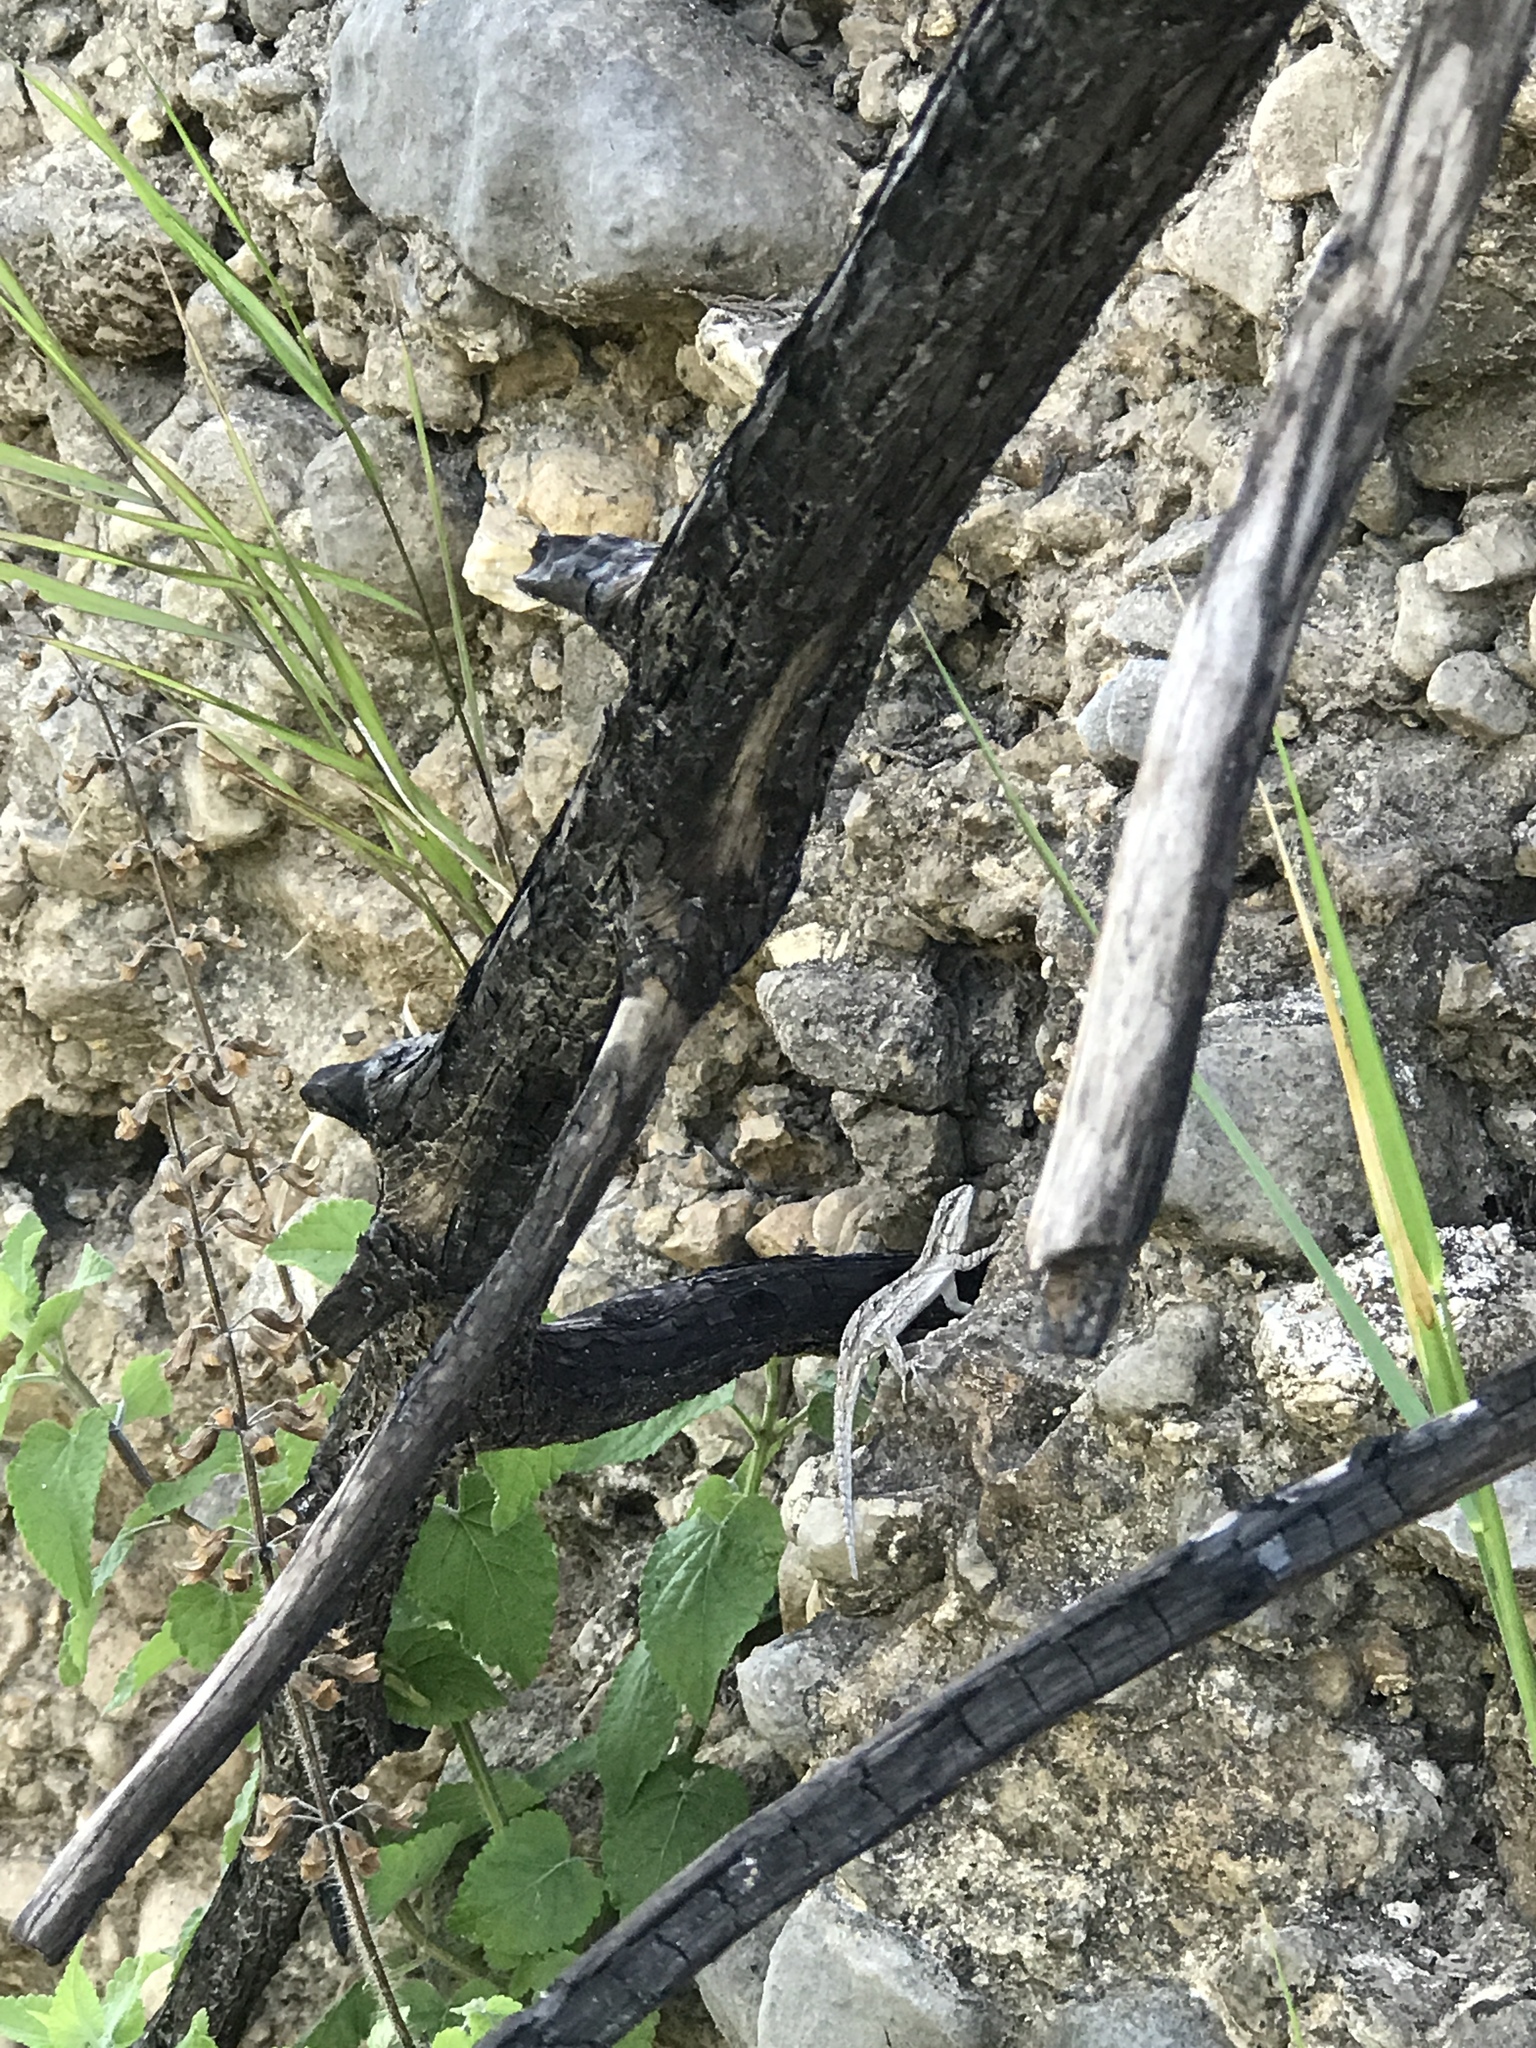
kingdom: Animalia
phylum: Chordata
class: Squamata
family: Phrynosomatidae
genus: Urosaurus
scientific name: Urosaurus ornatus
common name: Ornate tree lizard
